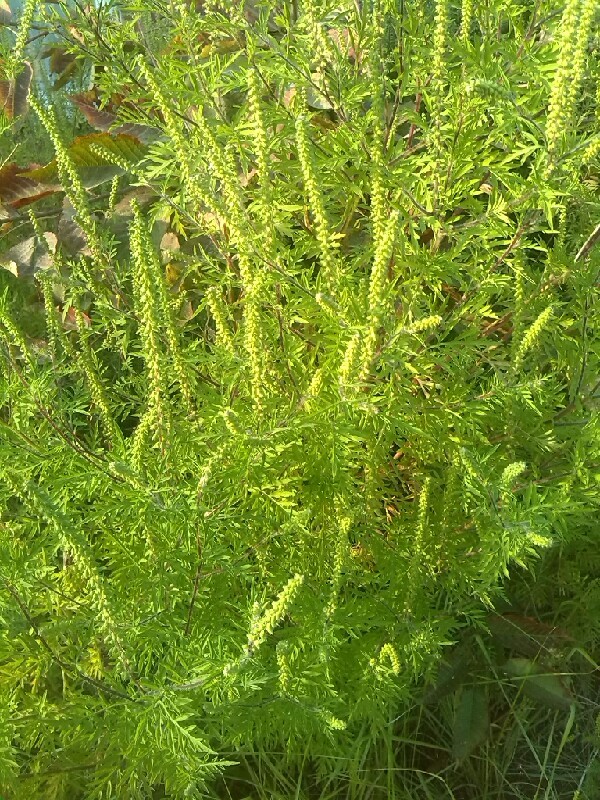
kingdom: Plantae
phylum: Tracheophyta
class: Magnoliopsida
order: Asterales
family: Asteraceae
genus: Ambrosia
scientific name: Ambrosia artemisiifolia
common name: Annual ragweed
